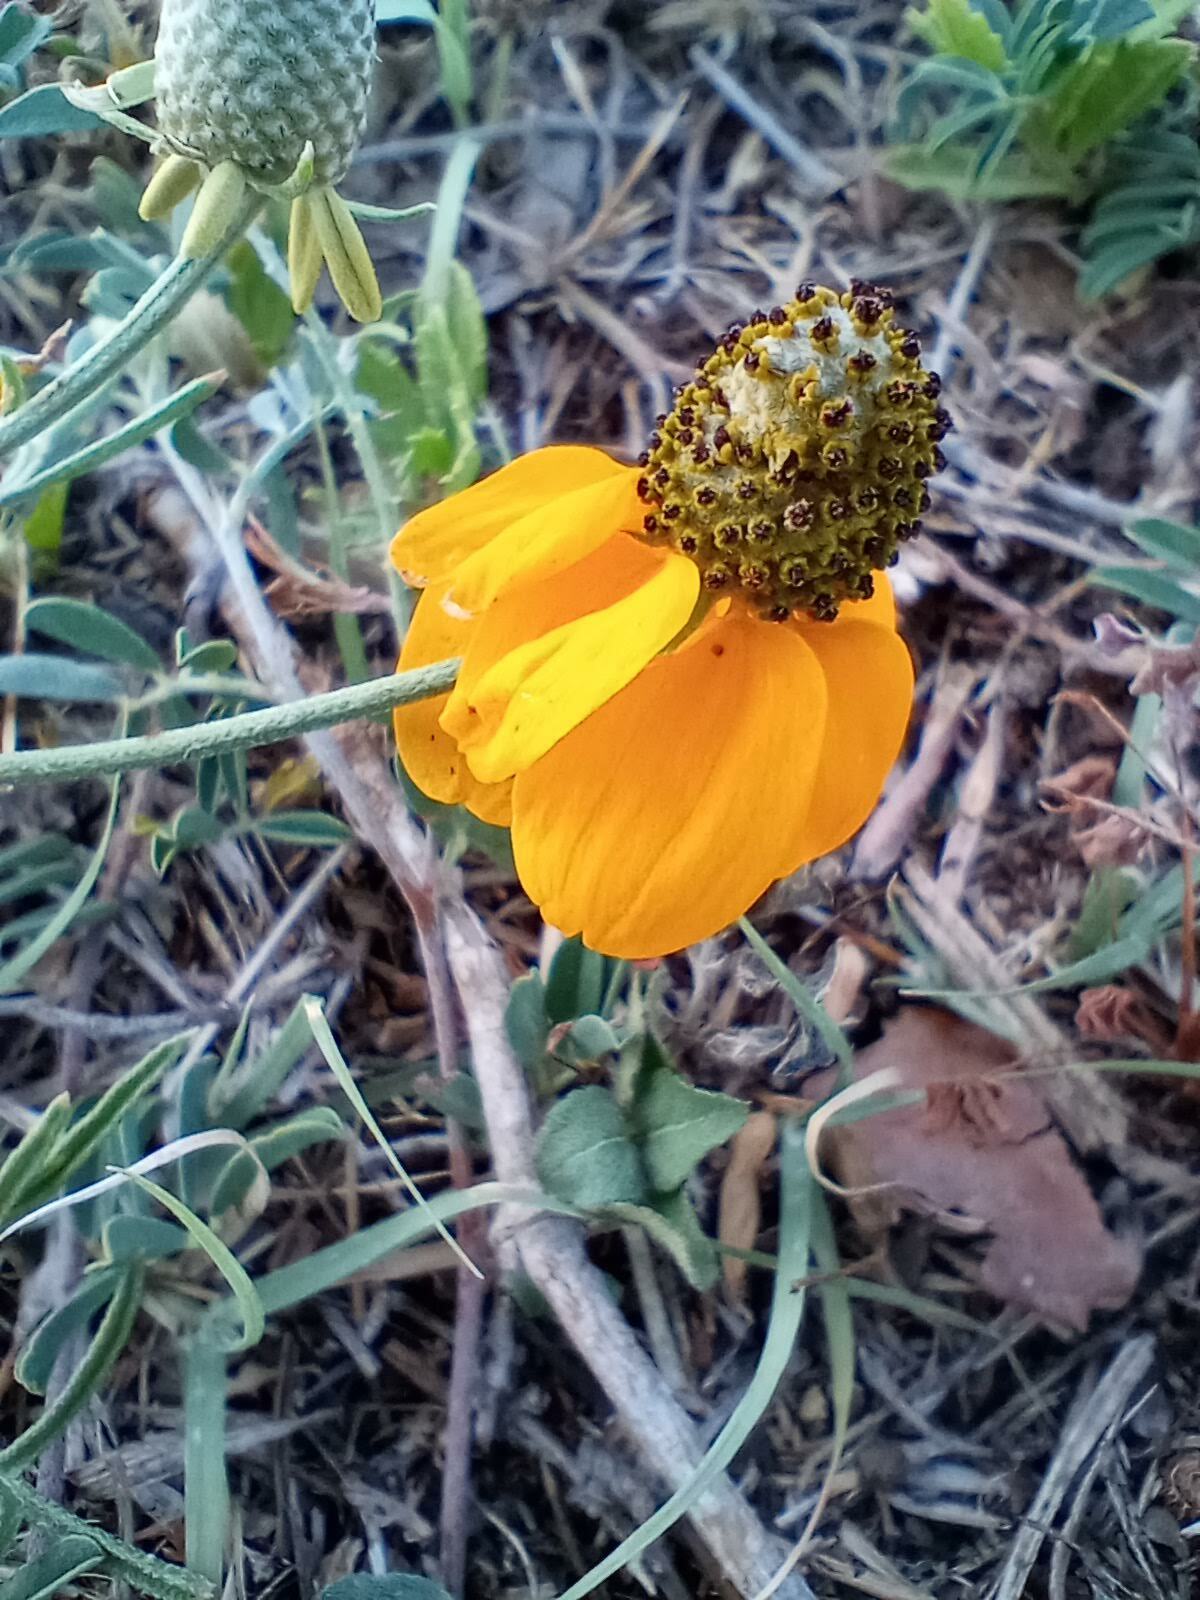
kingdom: Plantae
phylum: Tracheophyta
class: Magnoliopsida
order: Asterales
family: Asteraceae
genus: Ratibida
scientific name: Ratibida columnifera
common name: Prairie coneflower
